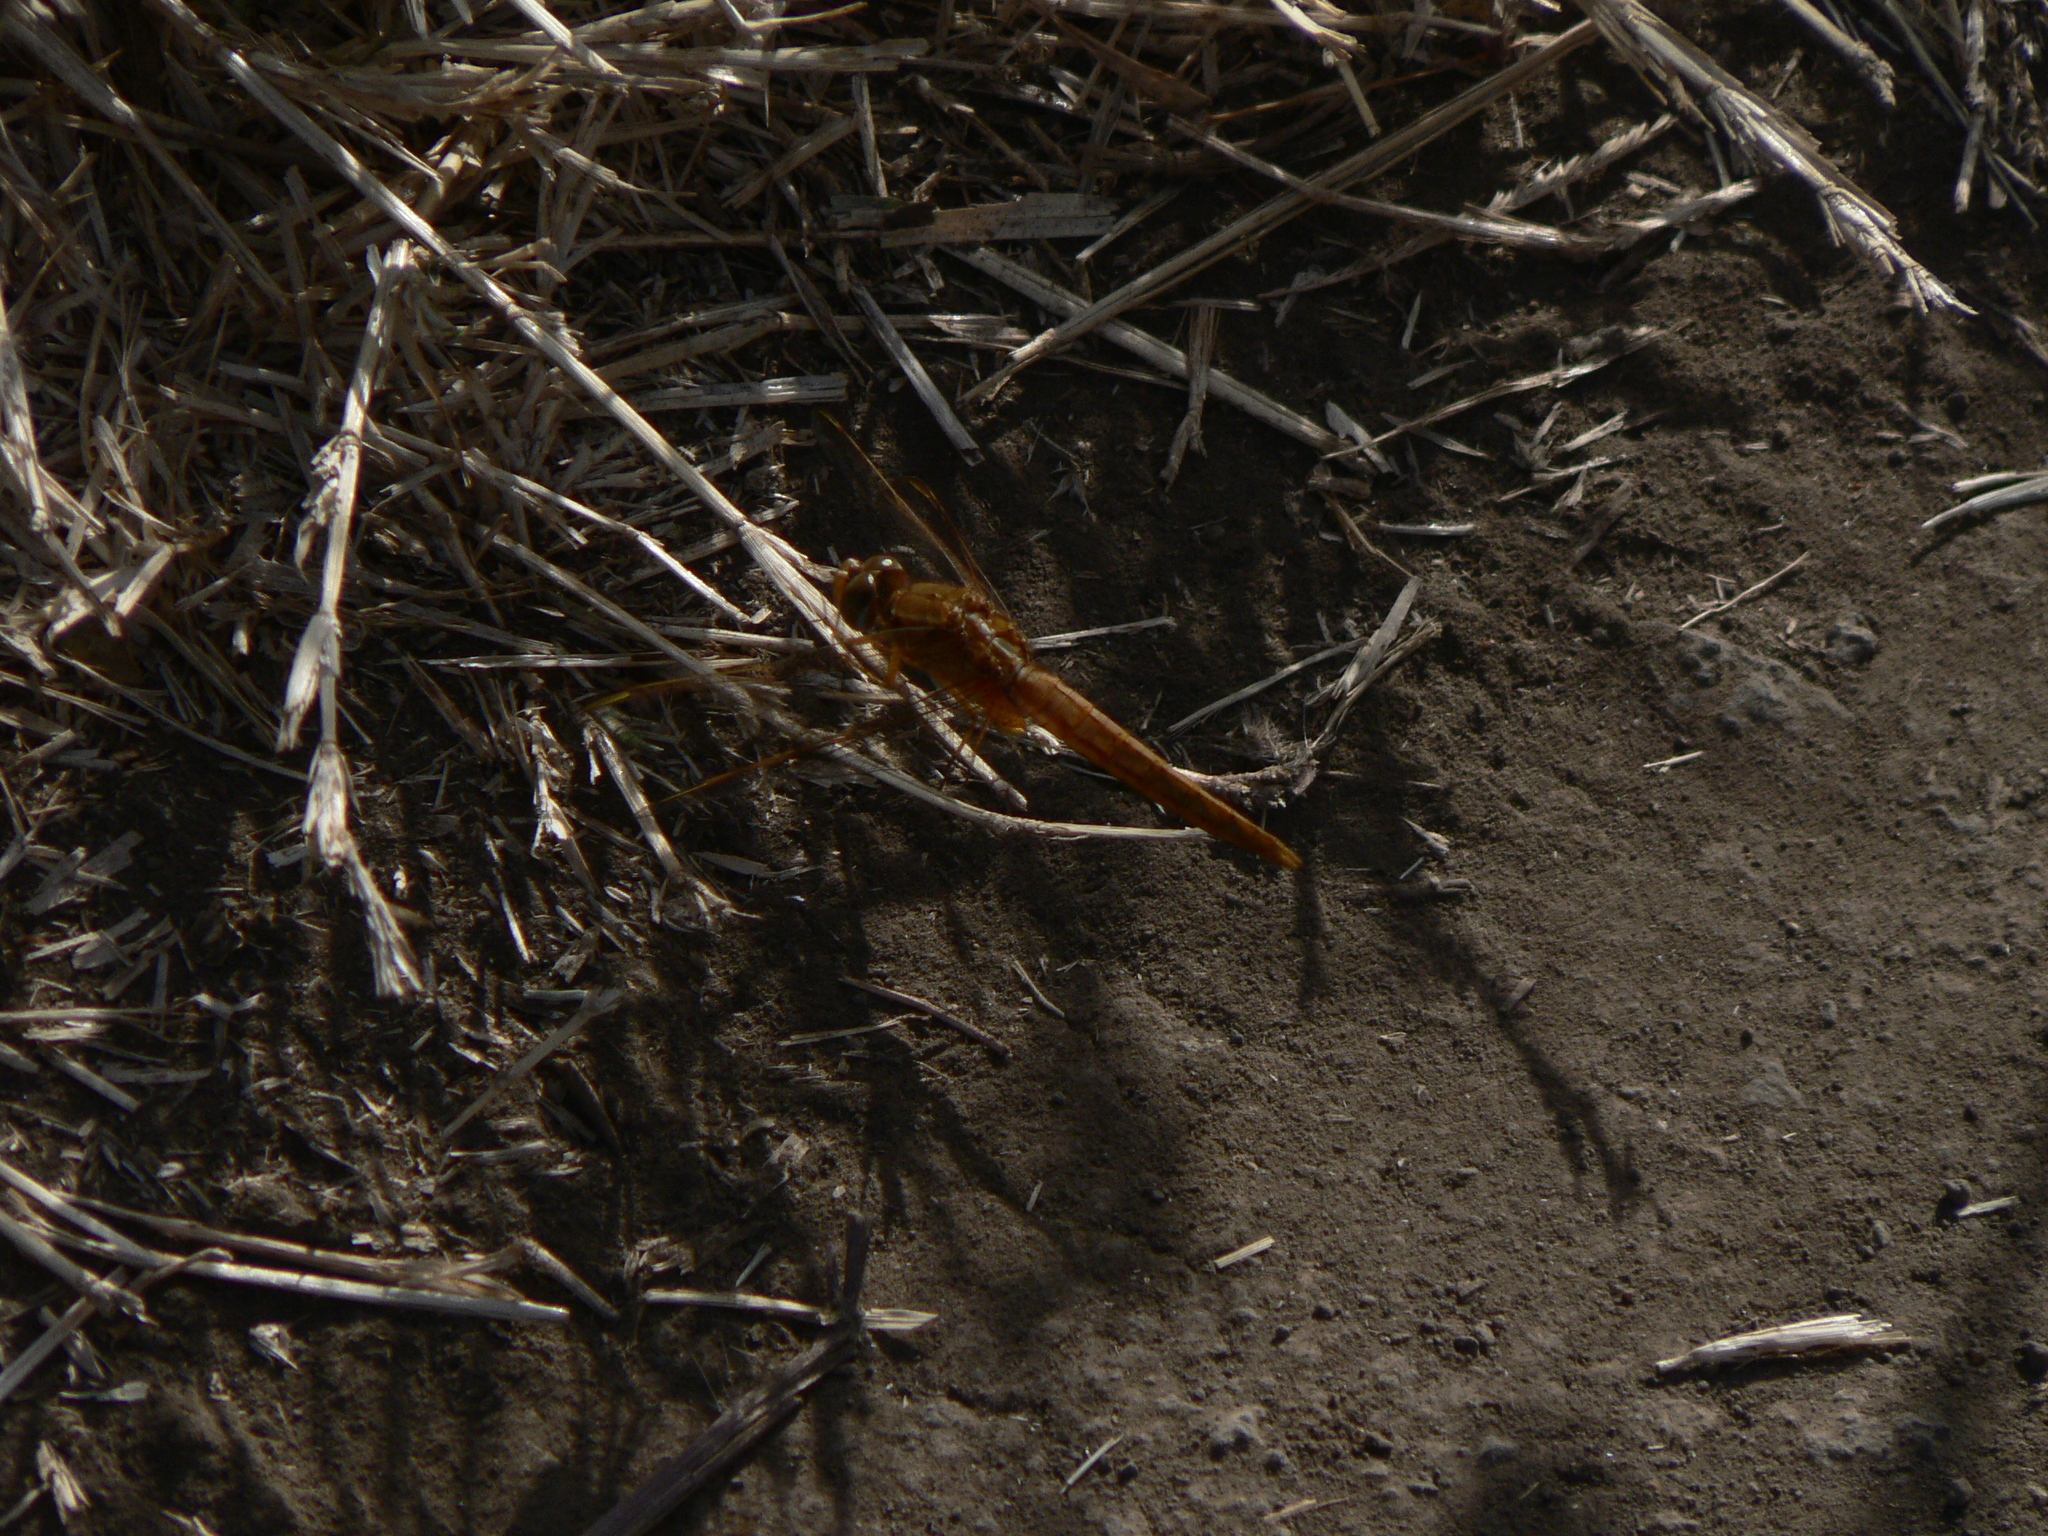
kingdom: Animalia
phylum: Arthropoda
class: Insecta
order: Odonata
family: Libellulidae
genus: Crocothemis
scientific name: Crocothemis erythraea
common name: Scarlet dragonfly
